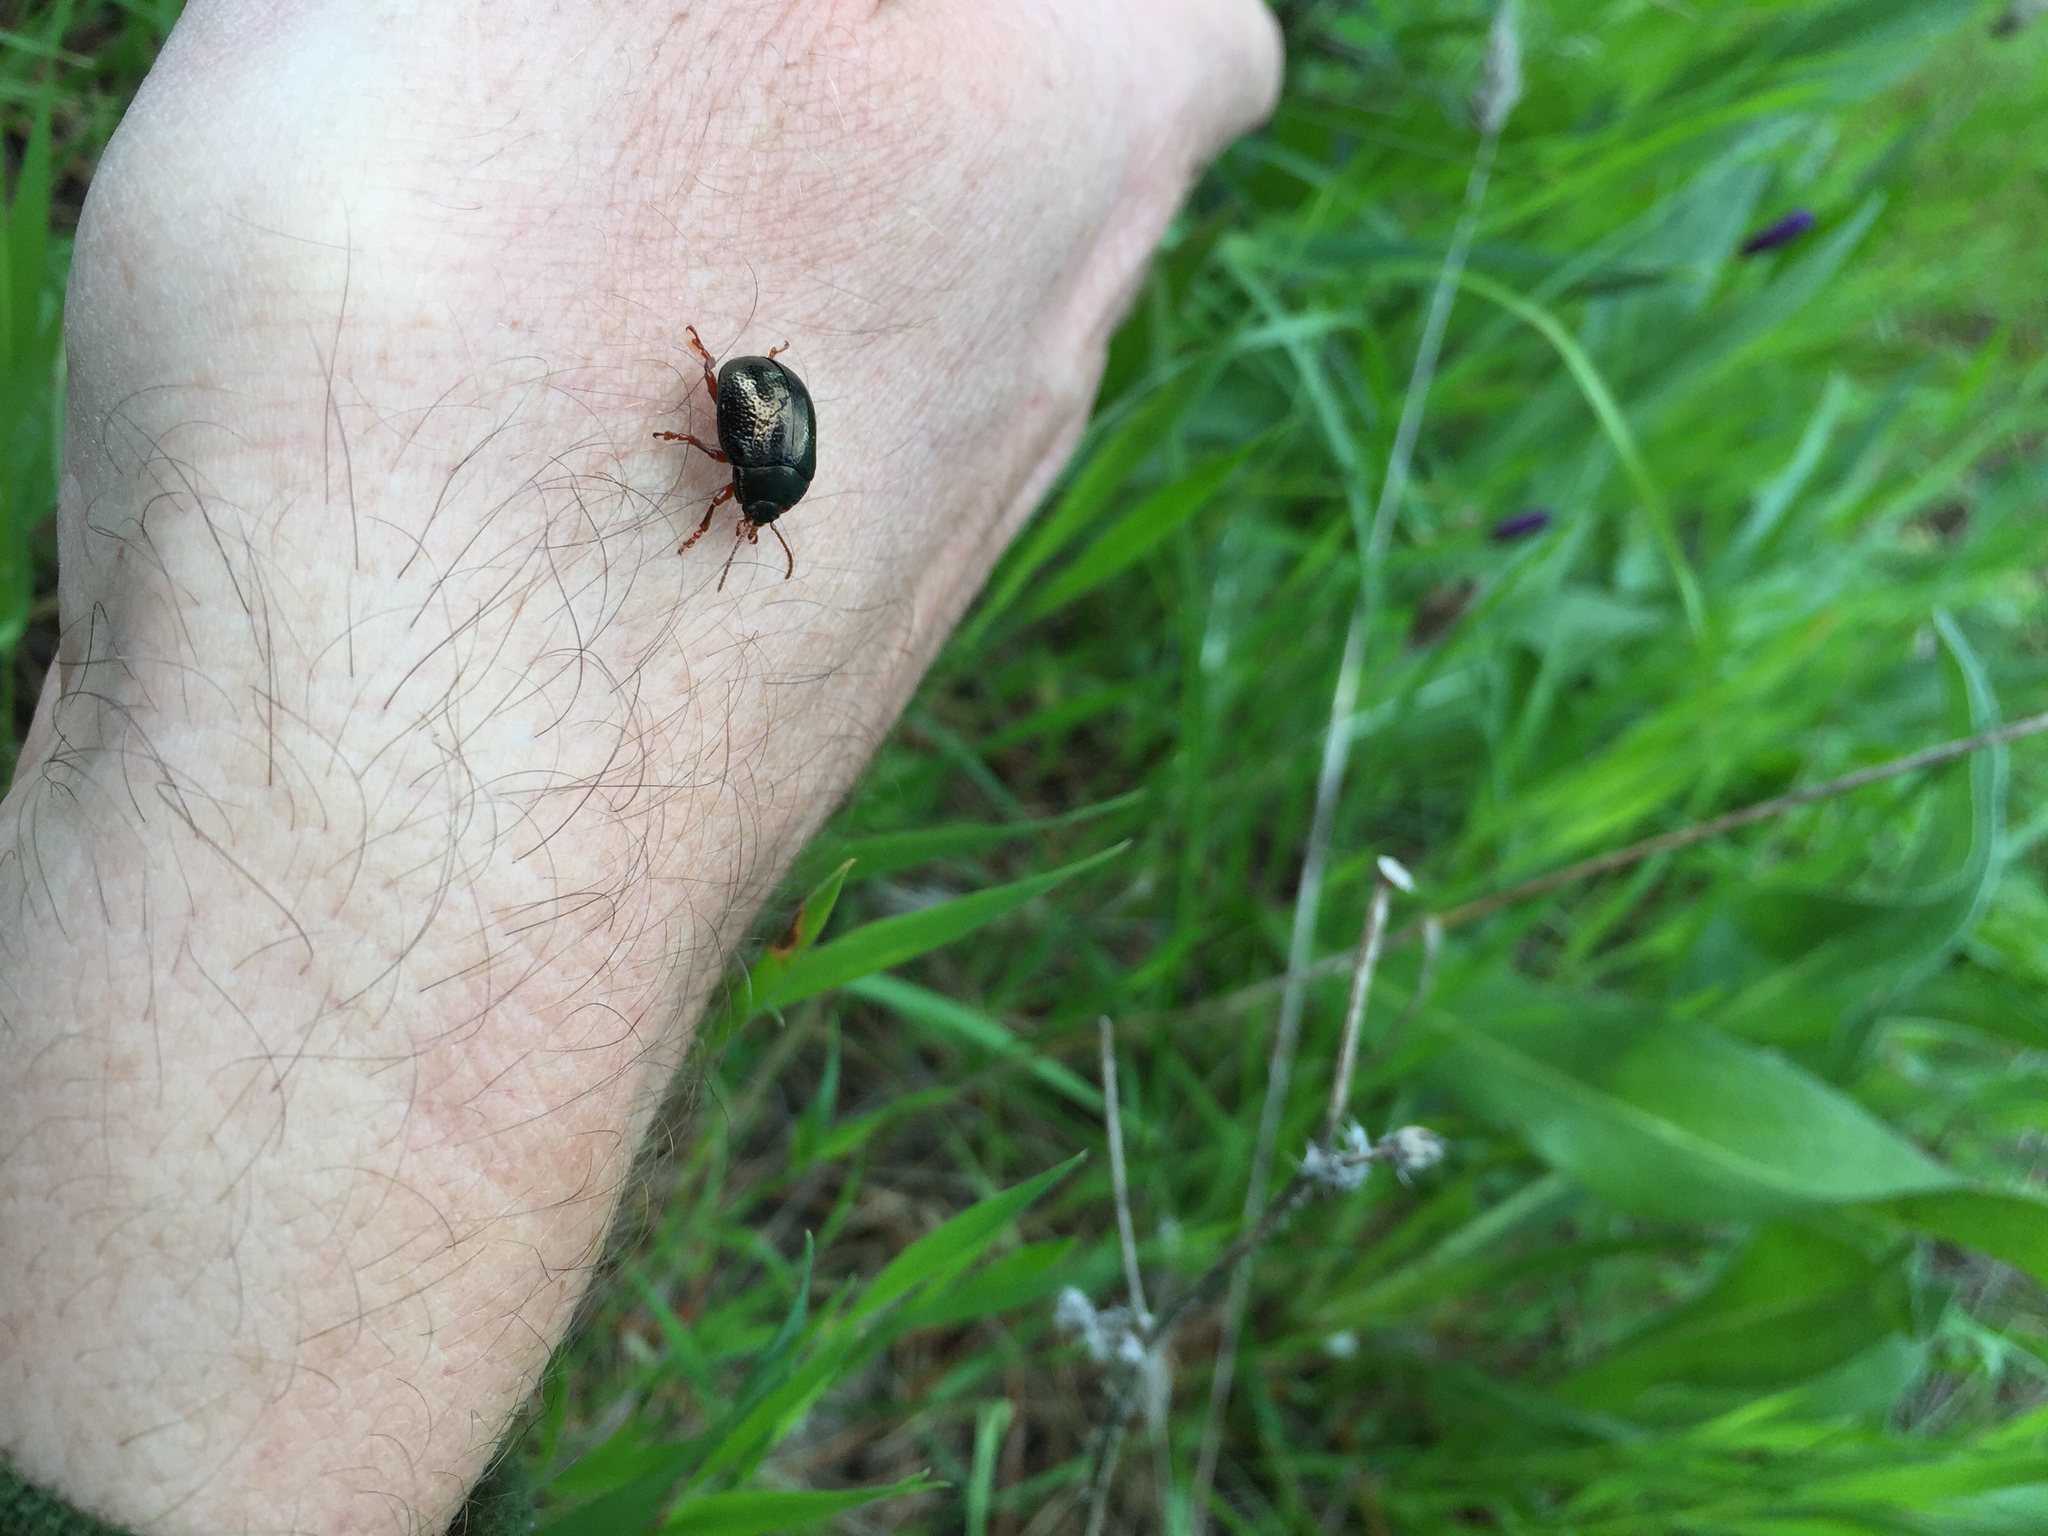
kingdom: Animalia
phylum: Arthropoda
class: Insecta
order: Coleoptera
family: Chrysomelidae
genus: Chrysolina
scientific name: Chrysolina bankii
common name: Leaf beetle
